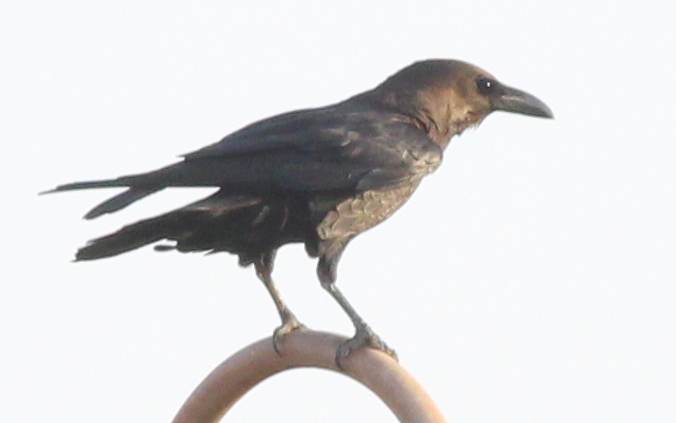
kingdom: Animalia
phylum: Chordata
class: Aves
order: Passeriformes
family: Corvidae
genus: Corvus
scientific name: Corvus ruficollis
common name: Brown-necked raven
